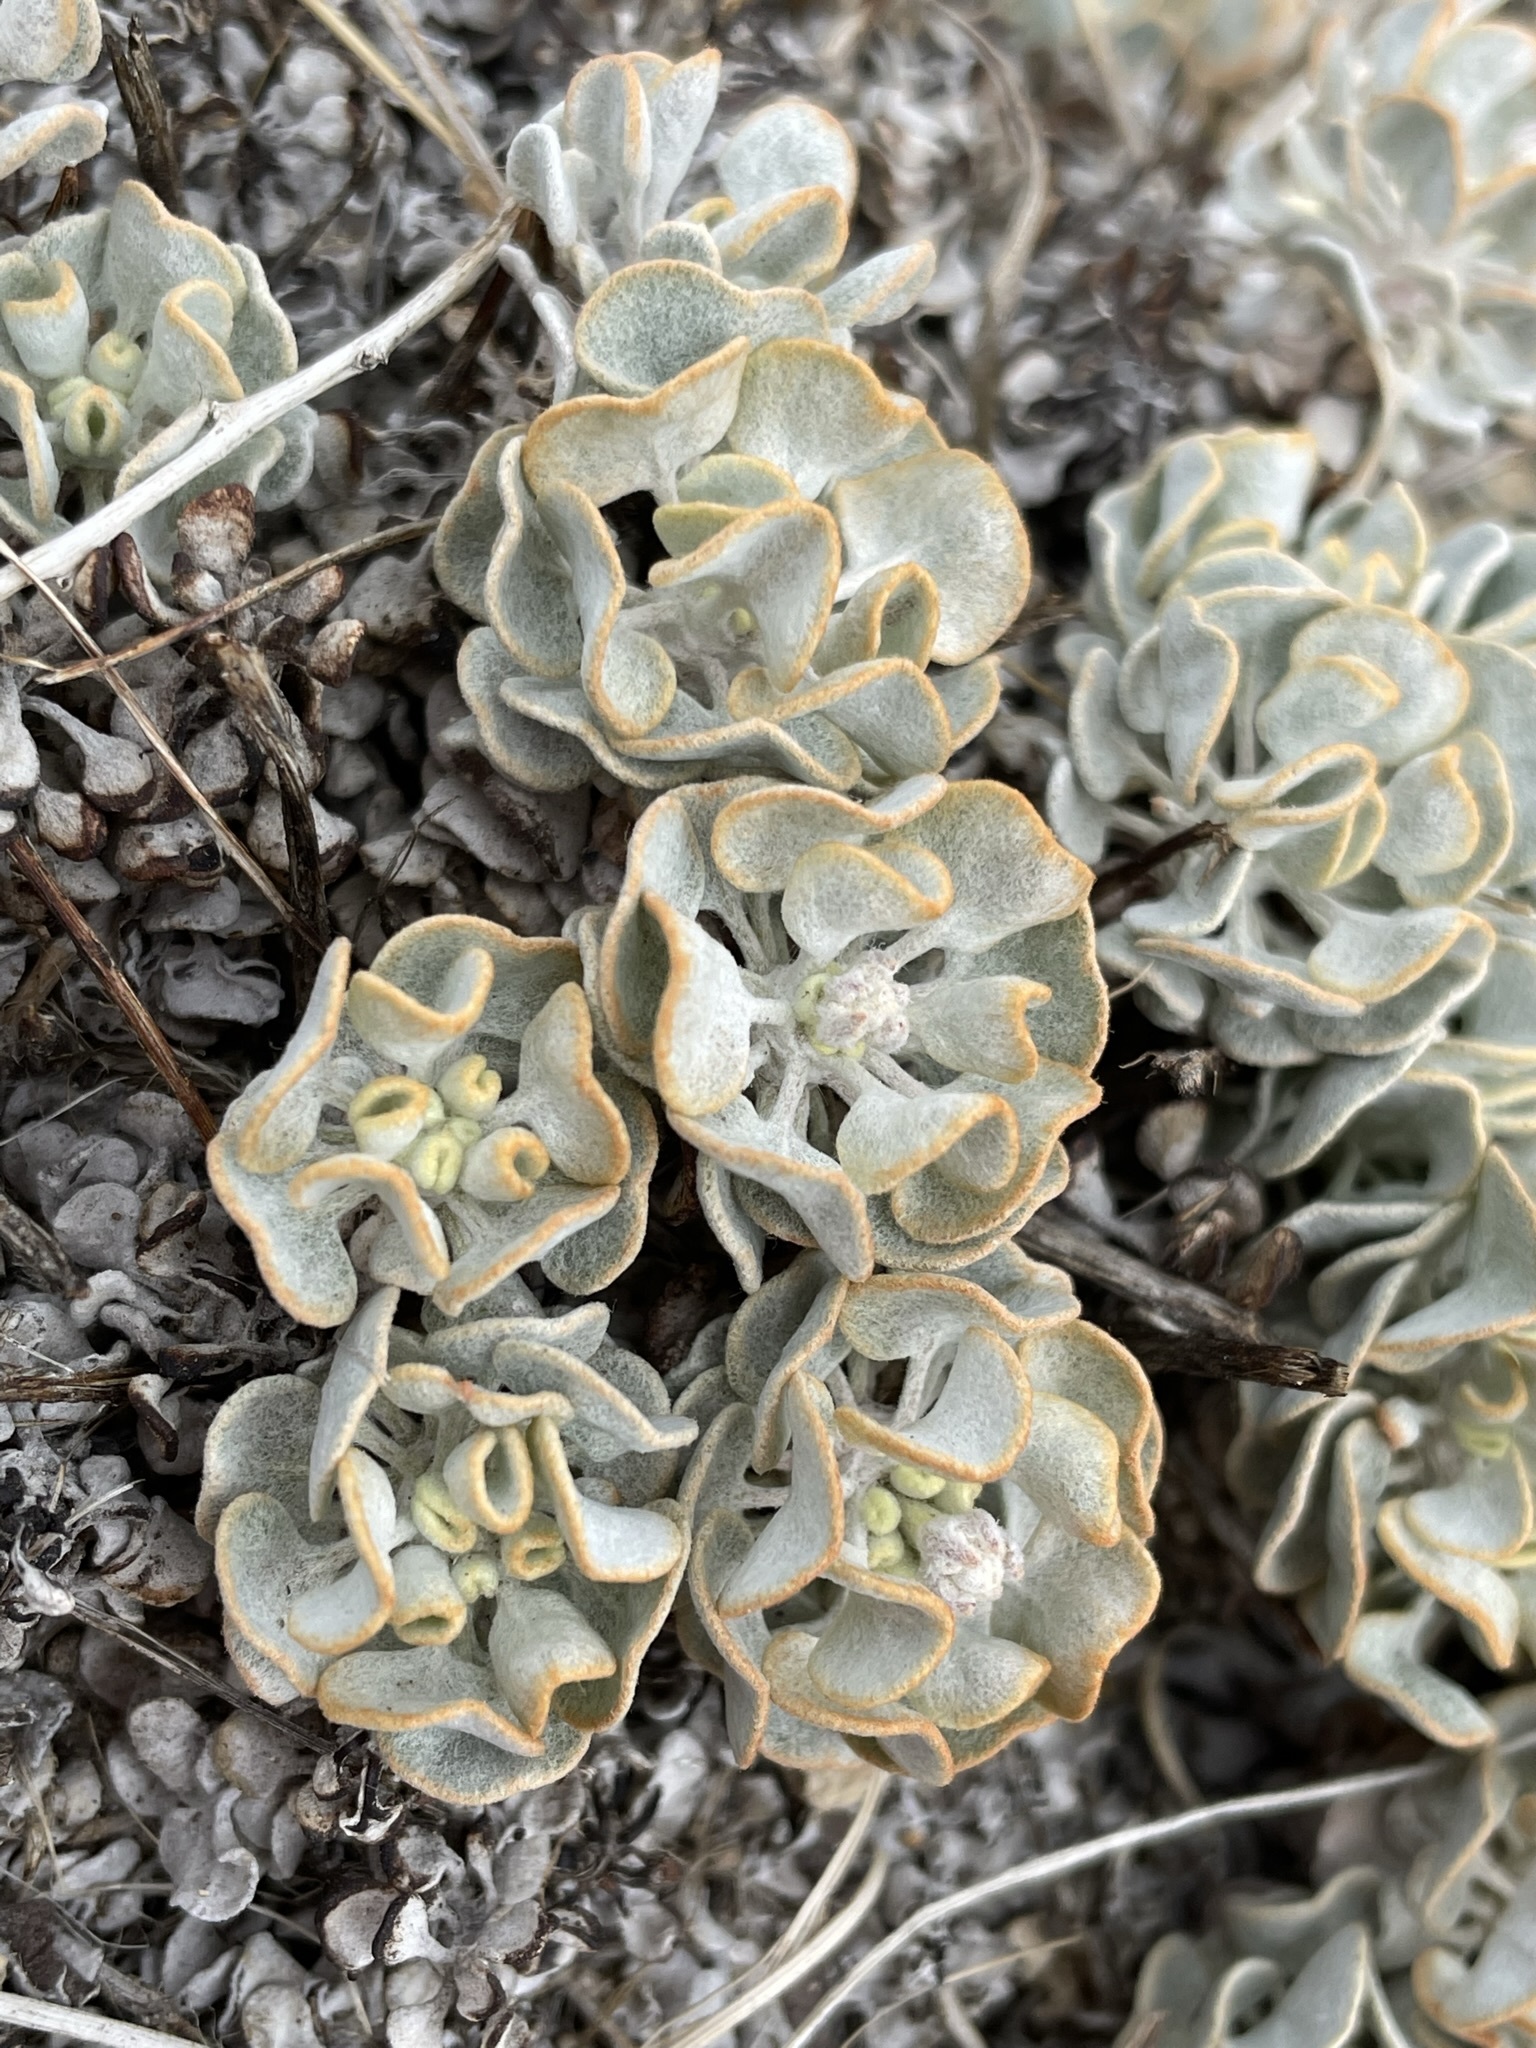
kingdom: Plantae
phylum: Tracheophyta
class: Magnoliopsida
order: Caryophyllales
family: Polygonaceae
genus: Eriogonum
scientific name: Eriogonum ovalifolium
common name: Cushion buckwheat
